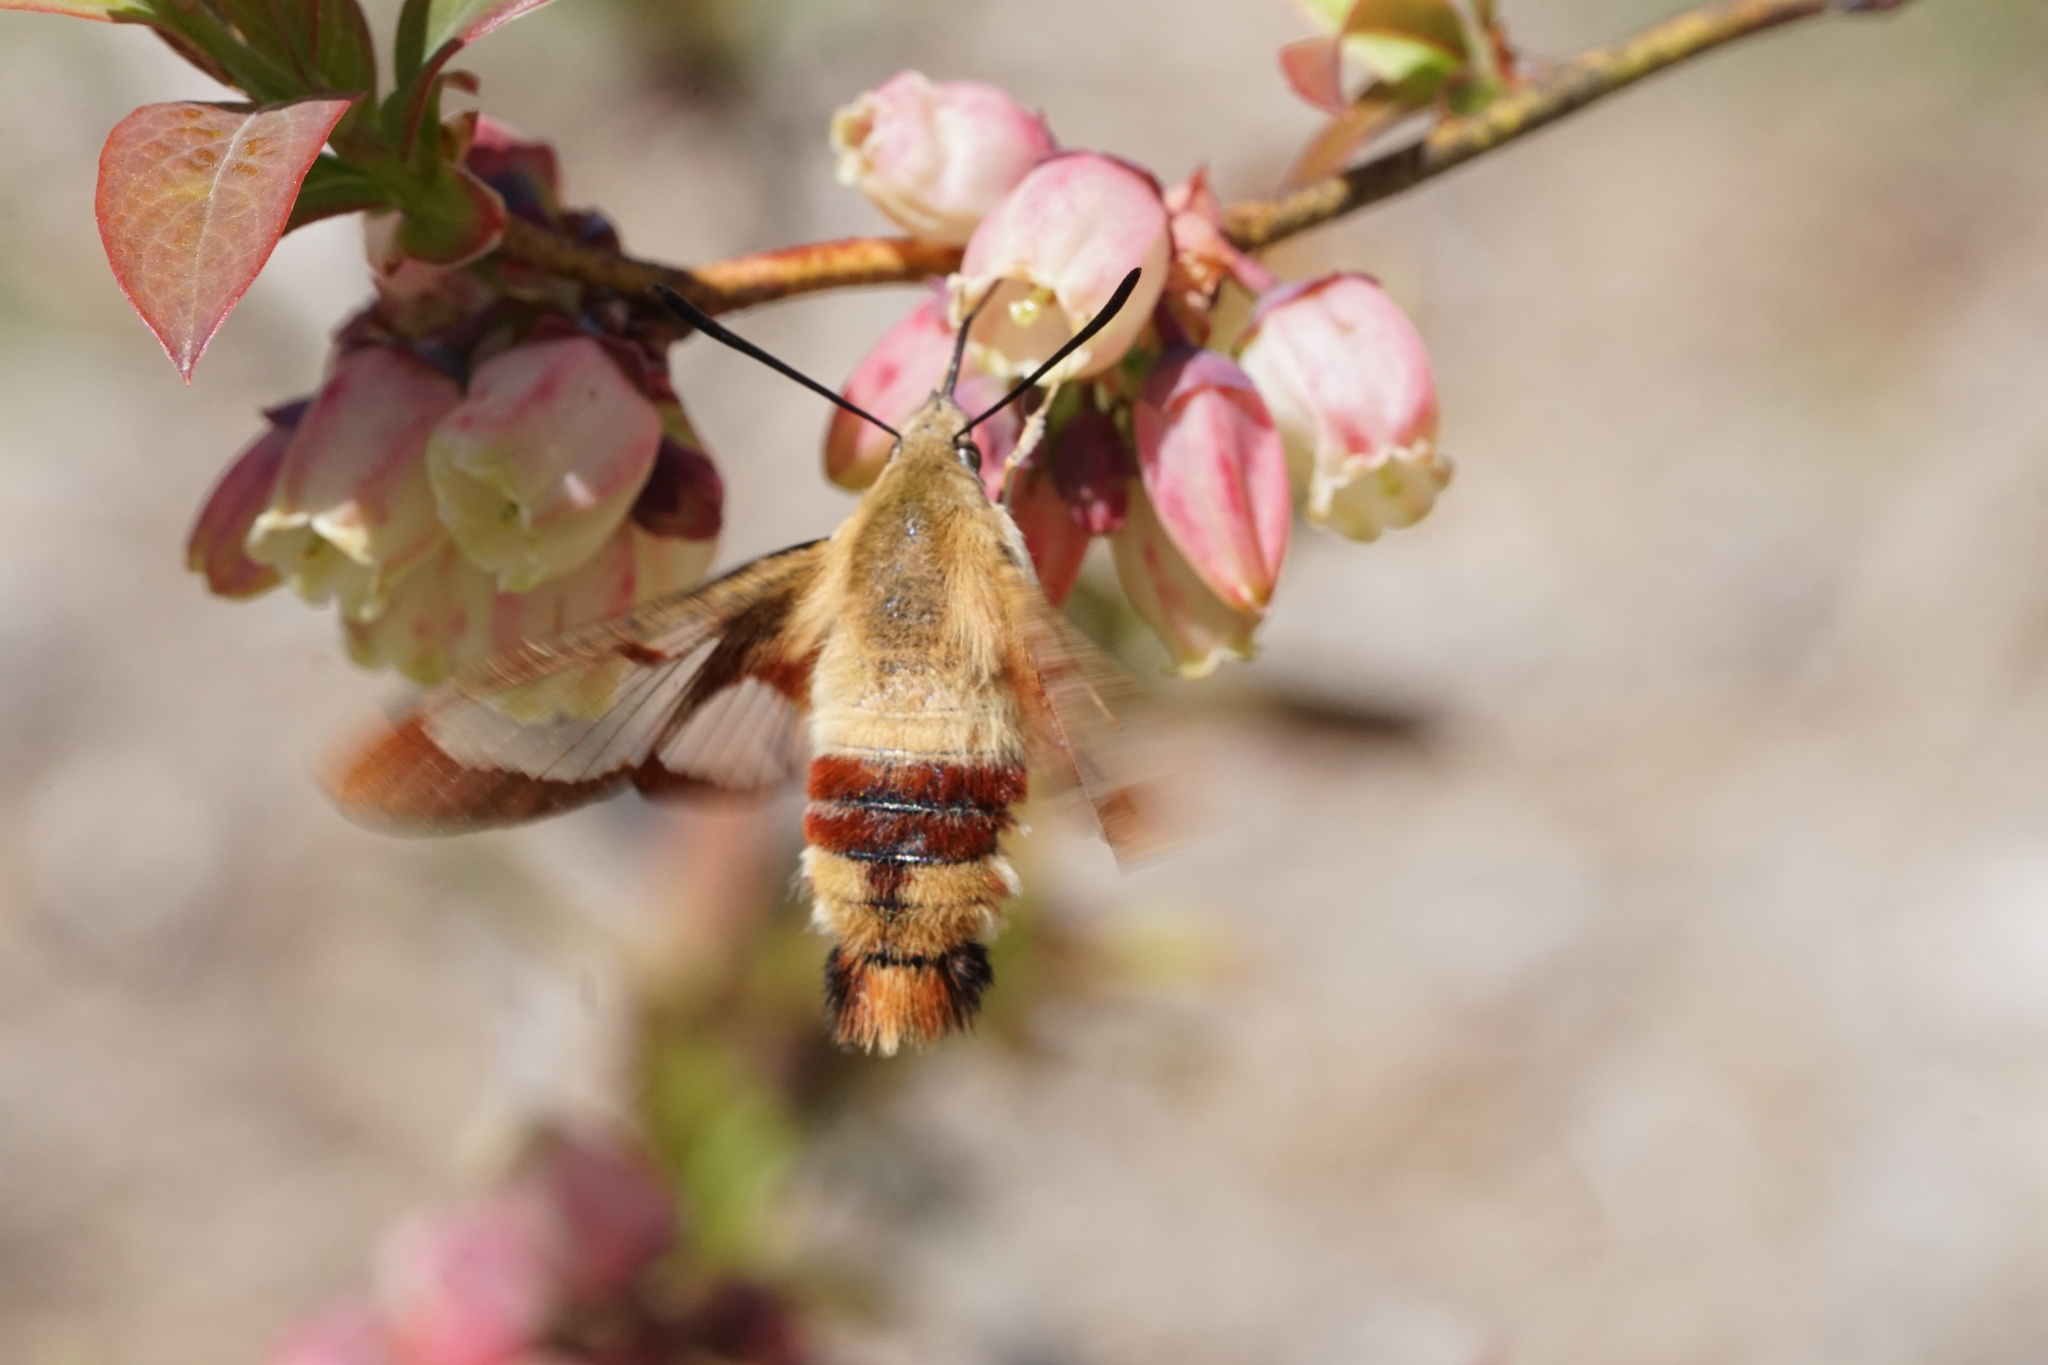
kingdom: Animalia
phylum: Arthropoda
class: Insecta
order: Lepidoptera
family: Sphingidae
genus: Hemaris
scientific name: Hemaris thysbe
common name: Common clear-wing
